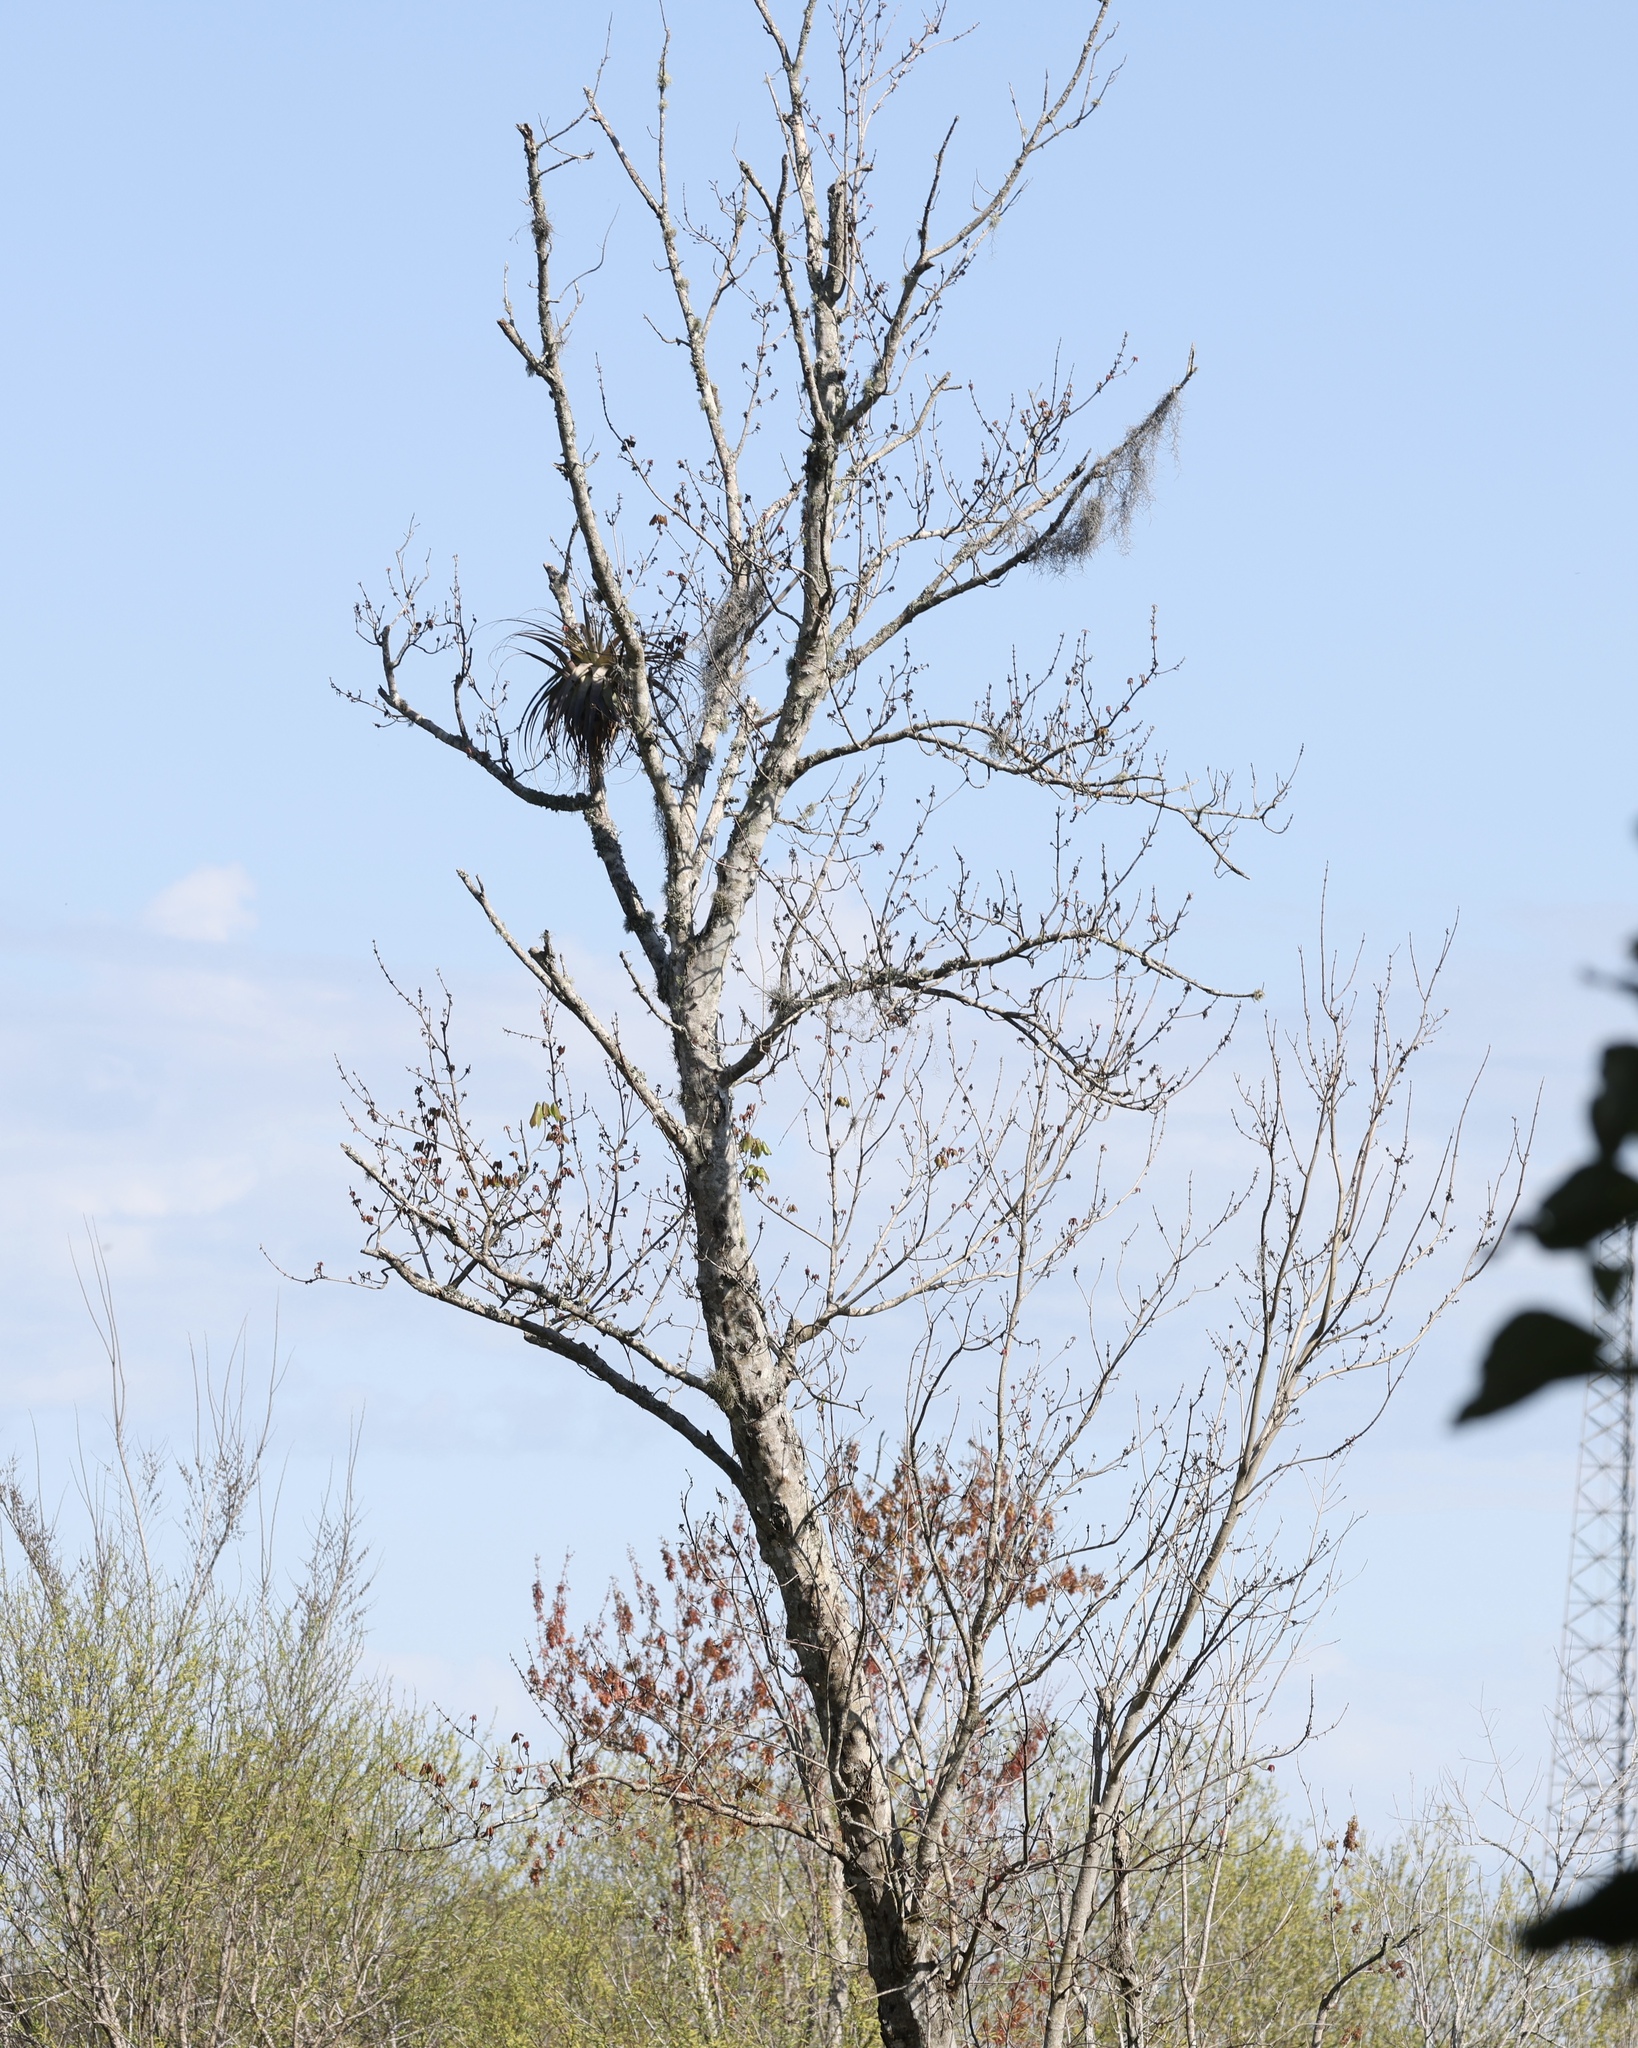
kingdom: Plantae
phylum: Tracheophyta
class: Liliopsida
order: Poales
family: Bromeliaceae
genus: Tillandsia
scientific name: Tillandsia utriculata
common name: Wild pine
